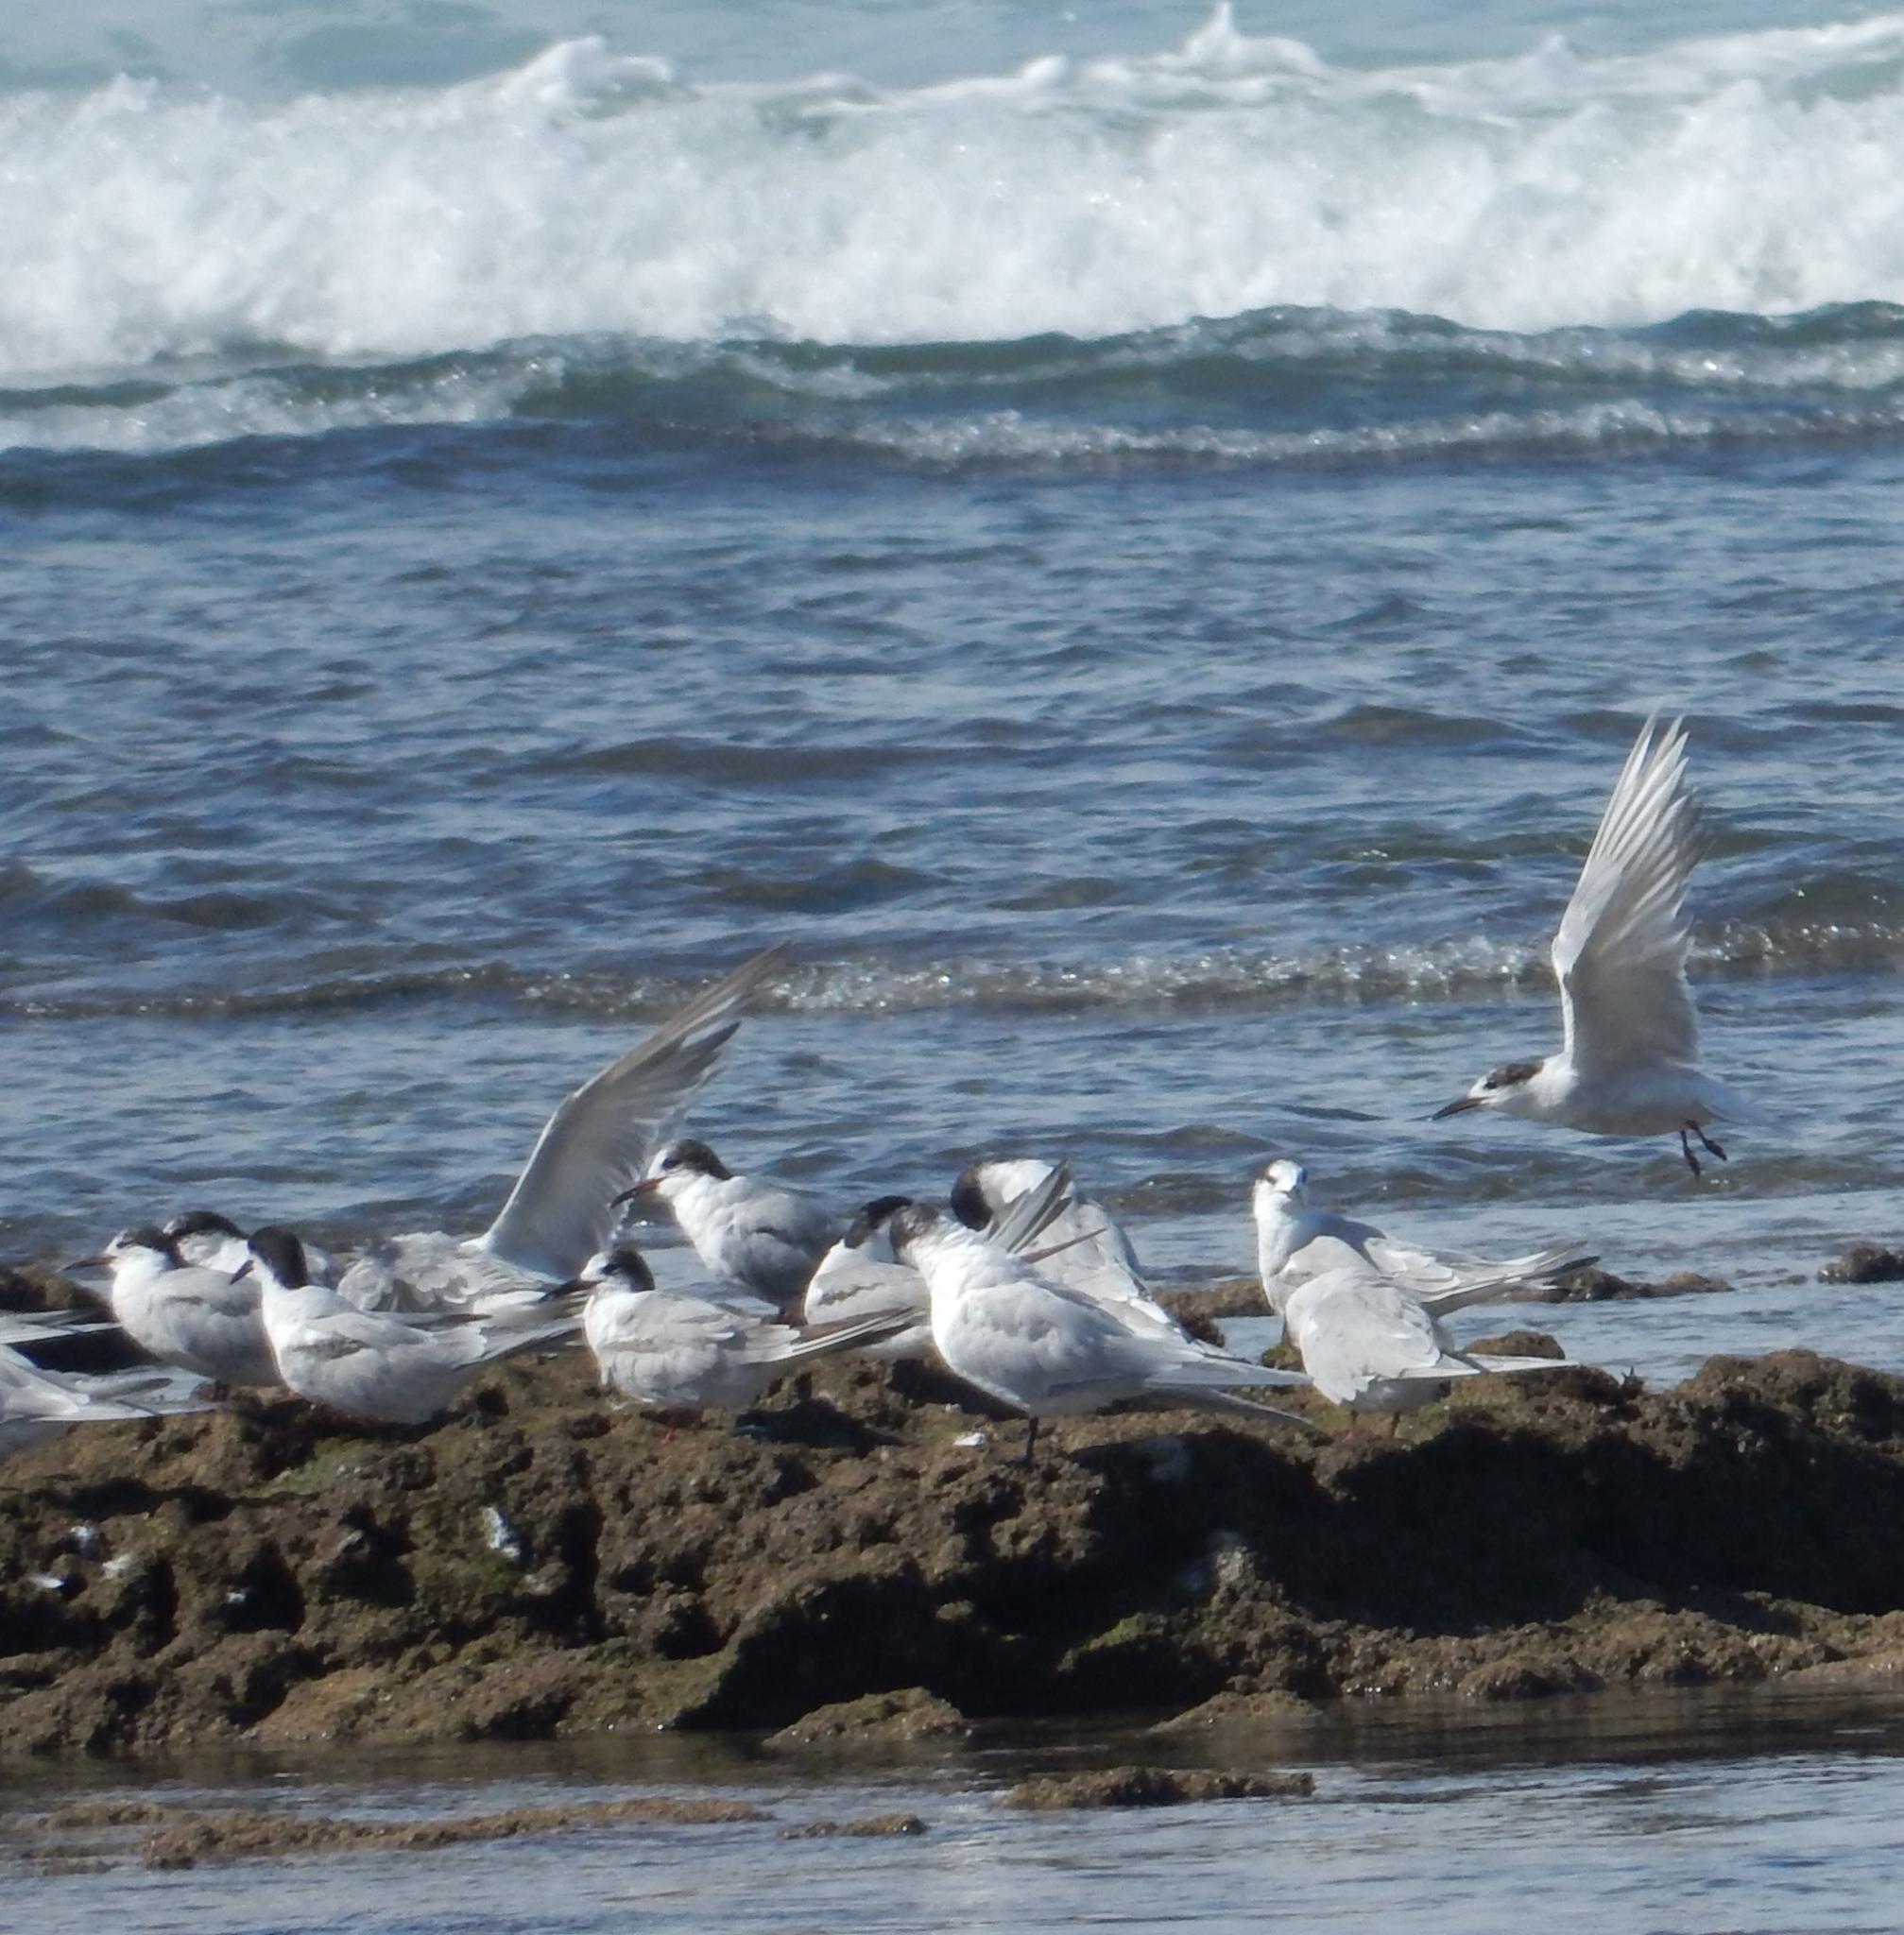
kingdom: Animalia
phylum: Chordata
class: Aves
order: Charadriiformes
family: Laridae
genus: Sterna
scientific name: Sterna hirundo
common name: Common tern
